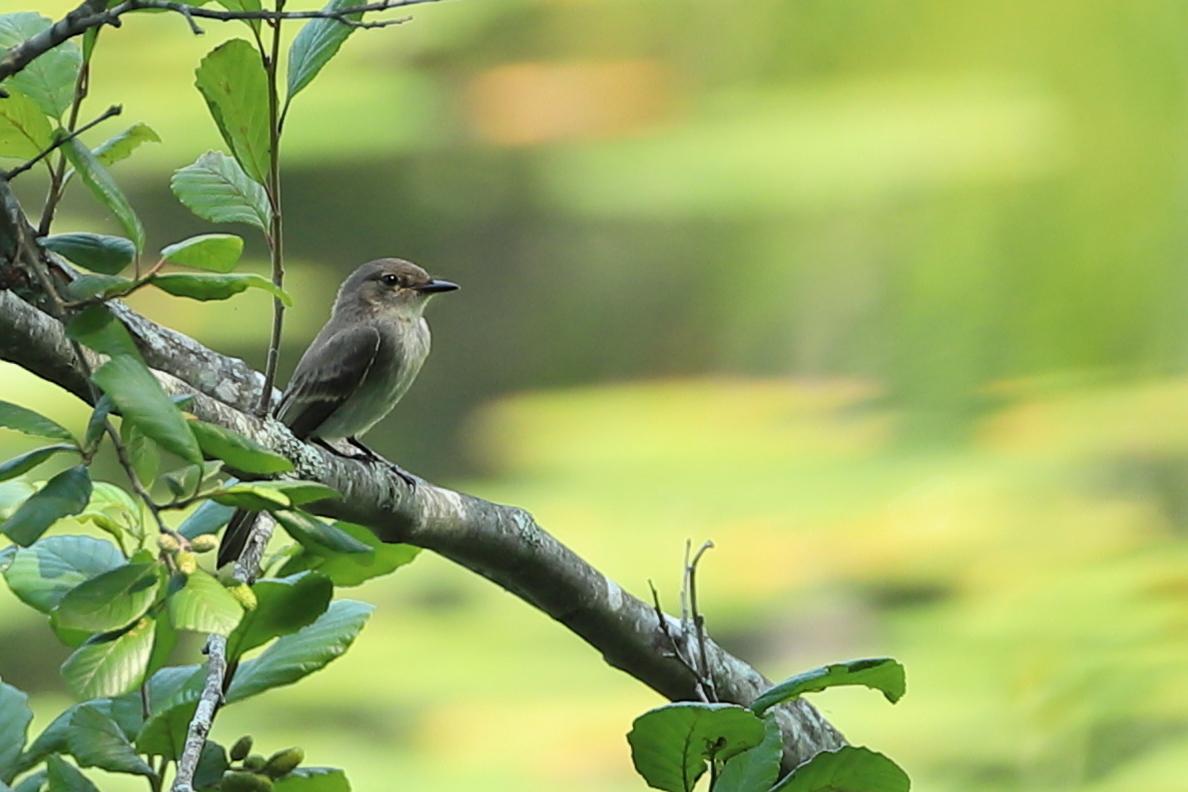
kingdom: Animalia
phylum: Chordata
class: Aves
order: Passeriformes
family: Tyrannidae
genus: Sayornis
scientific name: Sayornis phoebe
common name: Eastern phoebe
